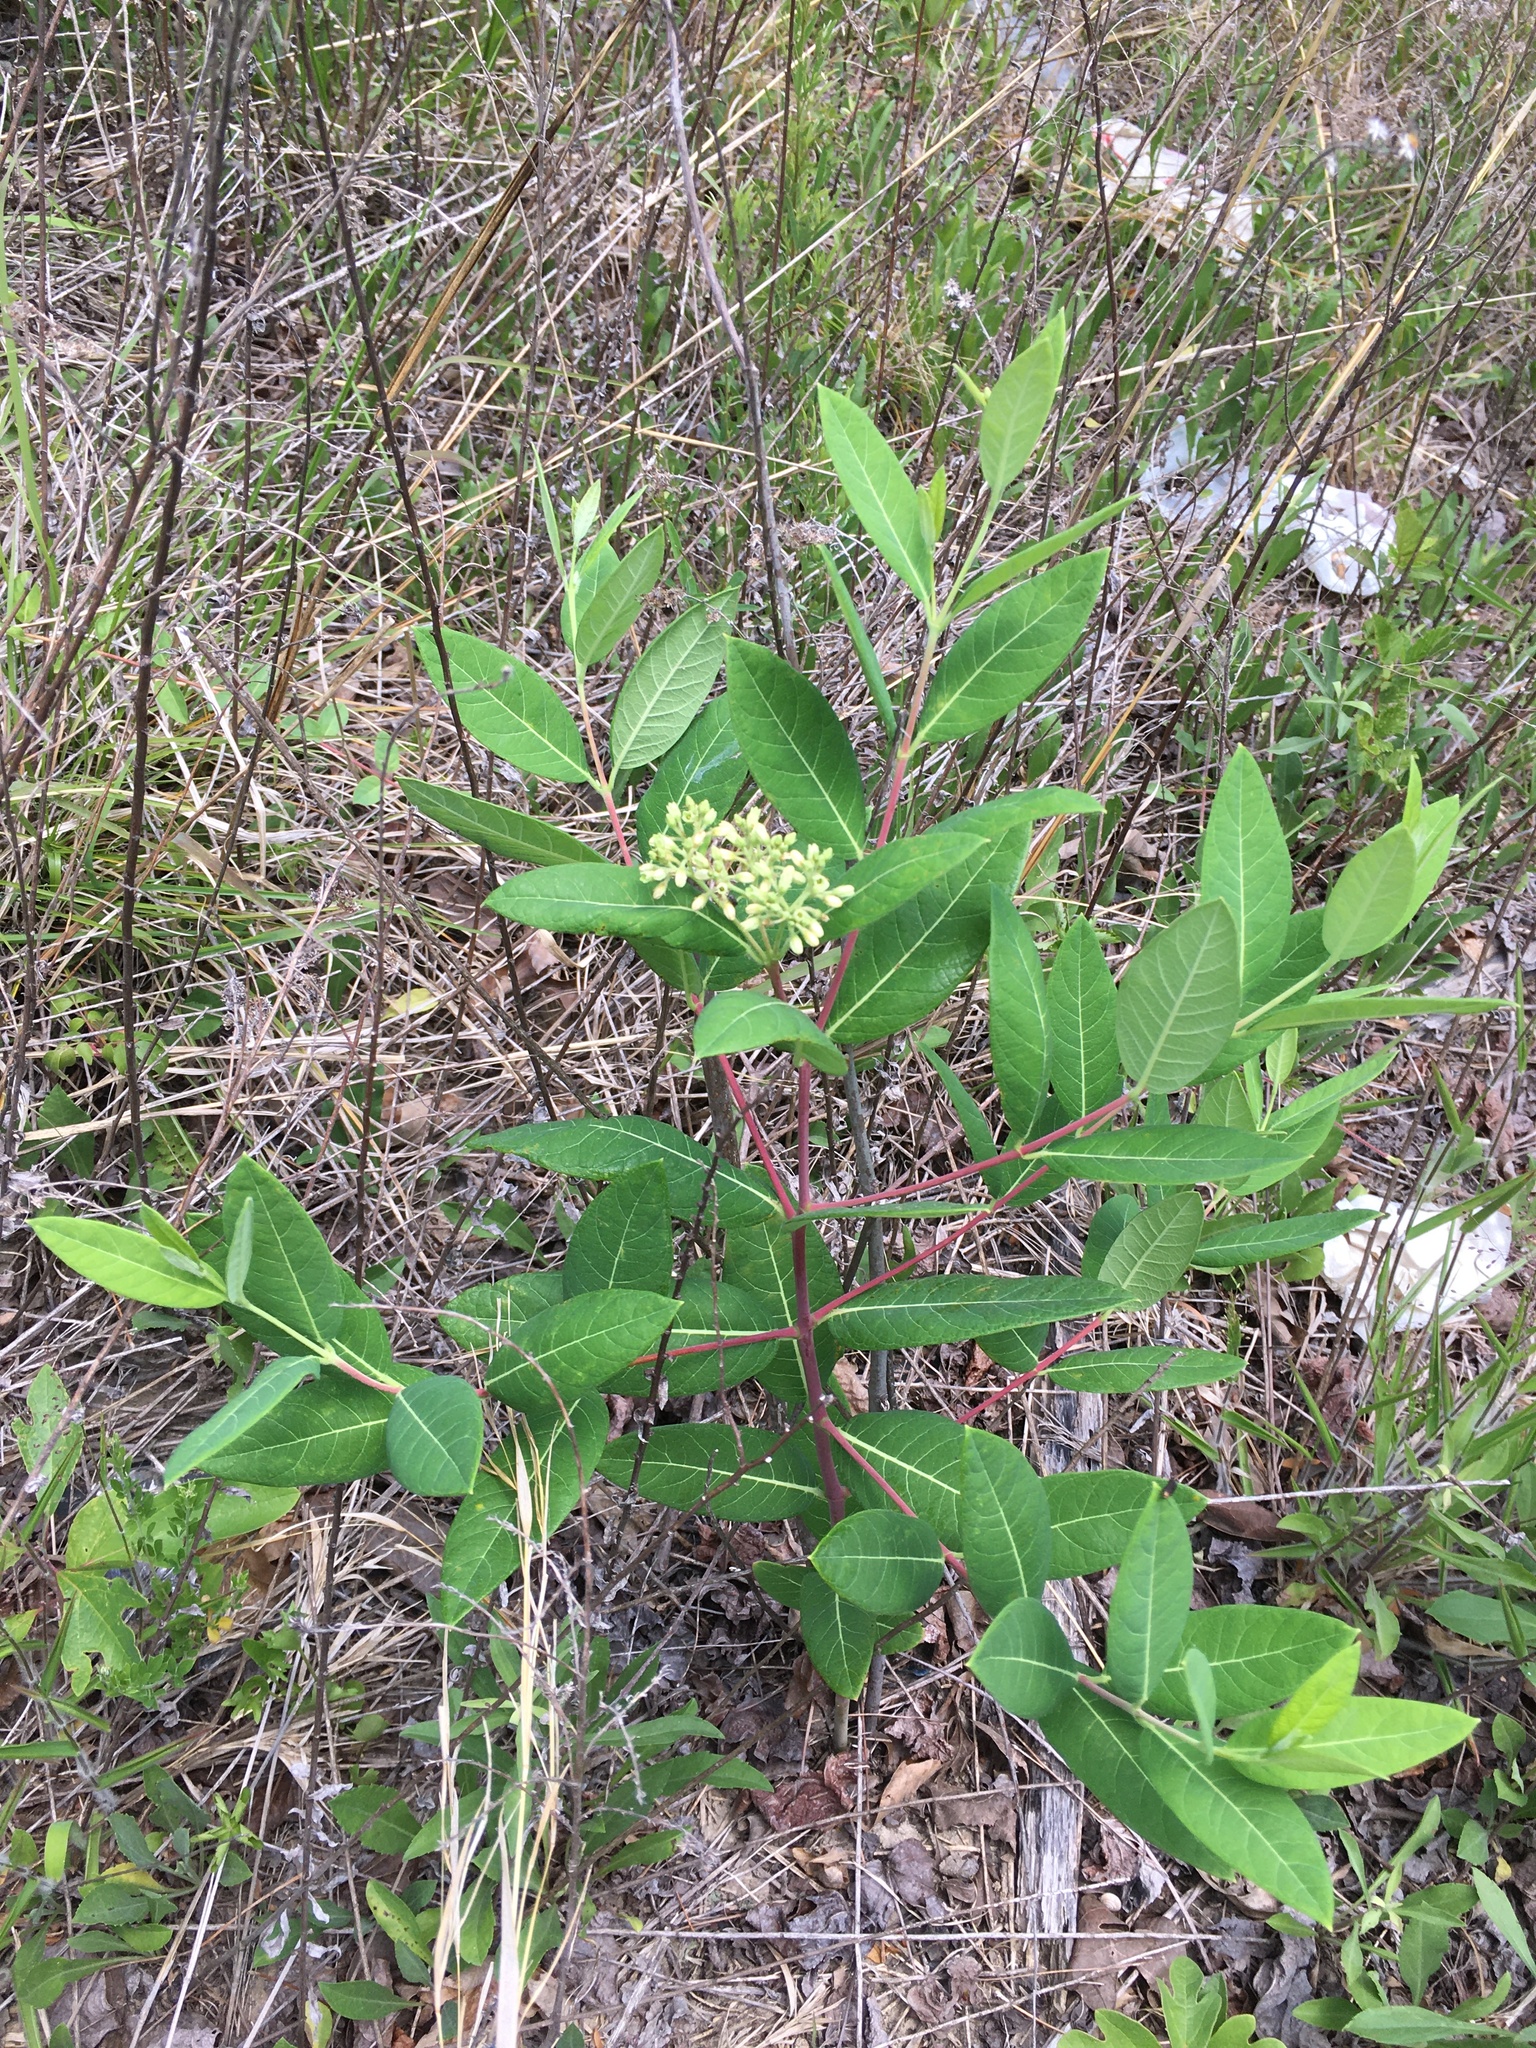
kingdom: Plantae
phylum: Tracheophyta
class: Magnoliopsida
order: Gentianales
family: Apocynaceae
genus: Apocynum
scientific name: Apocynum cannabinum
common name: Hemp dogbane
